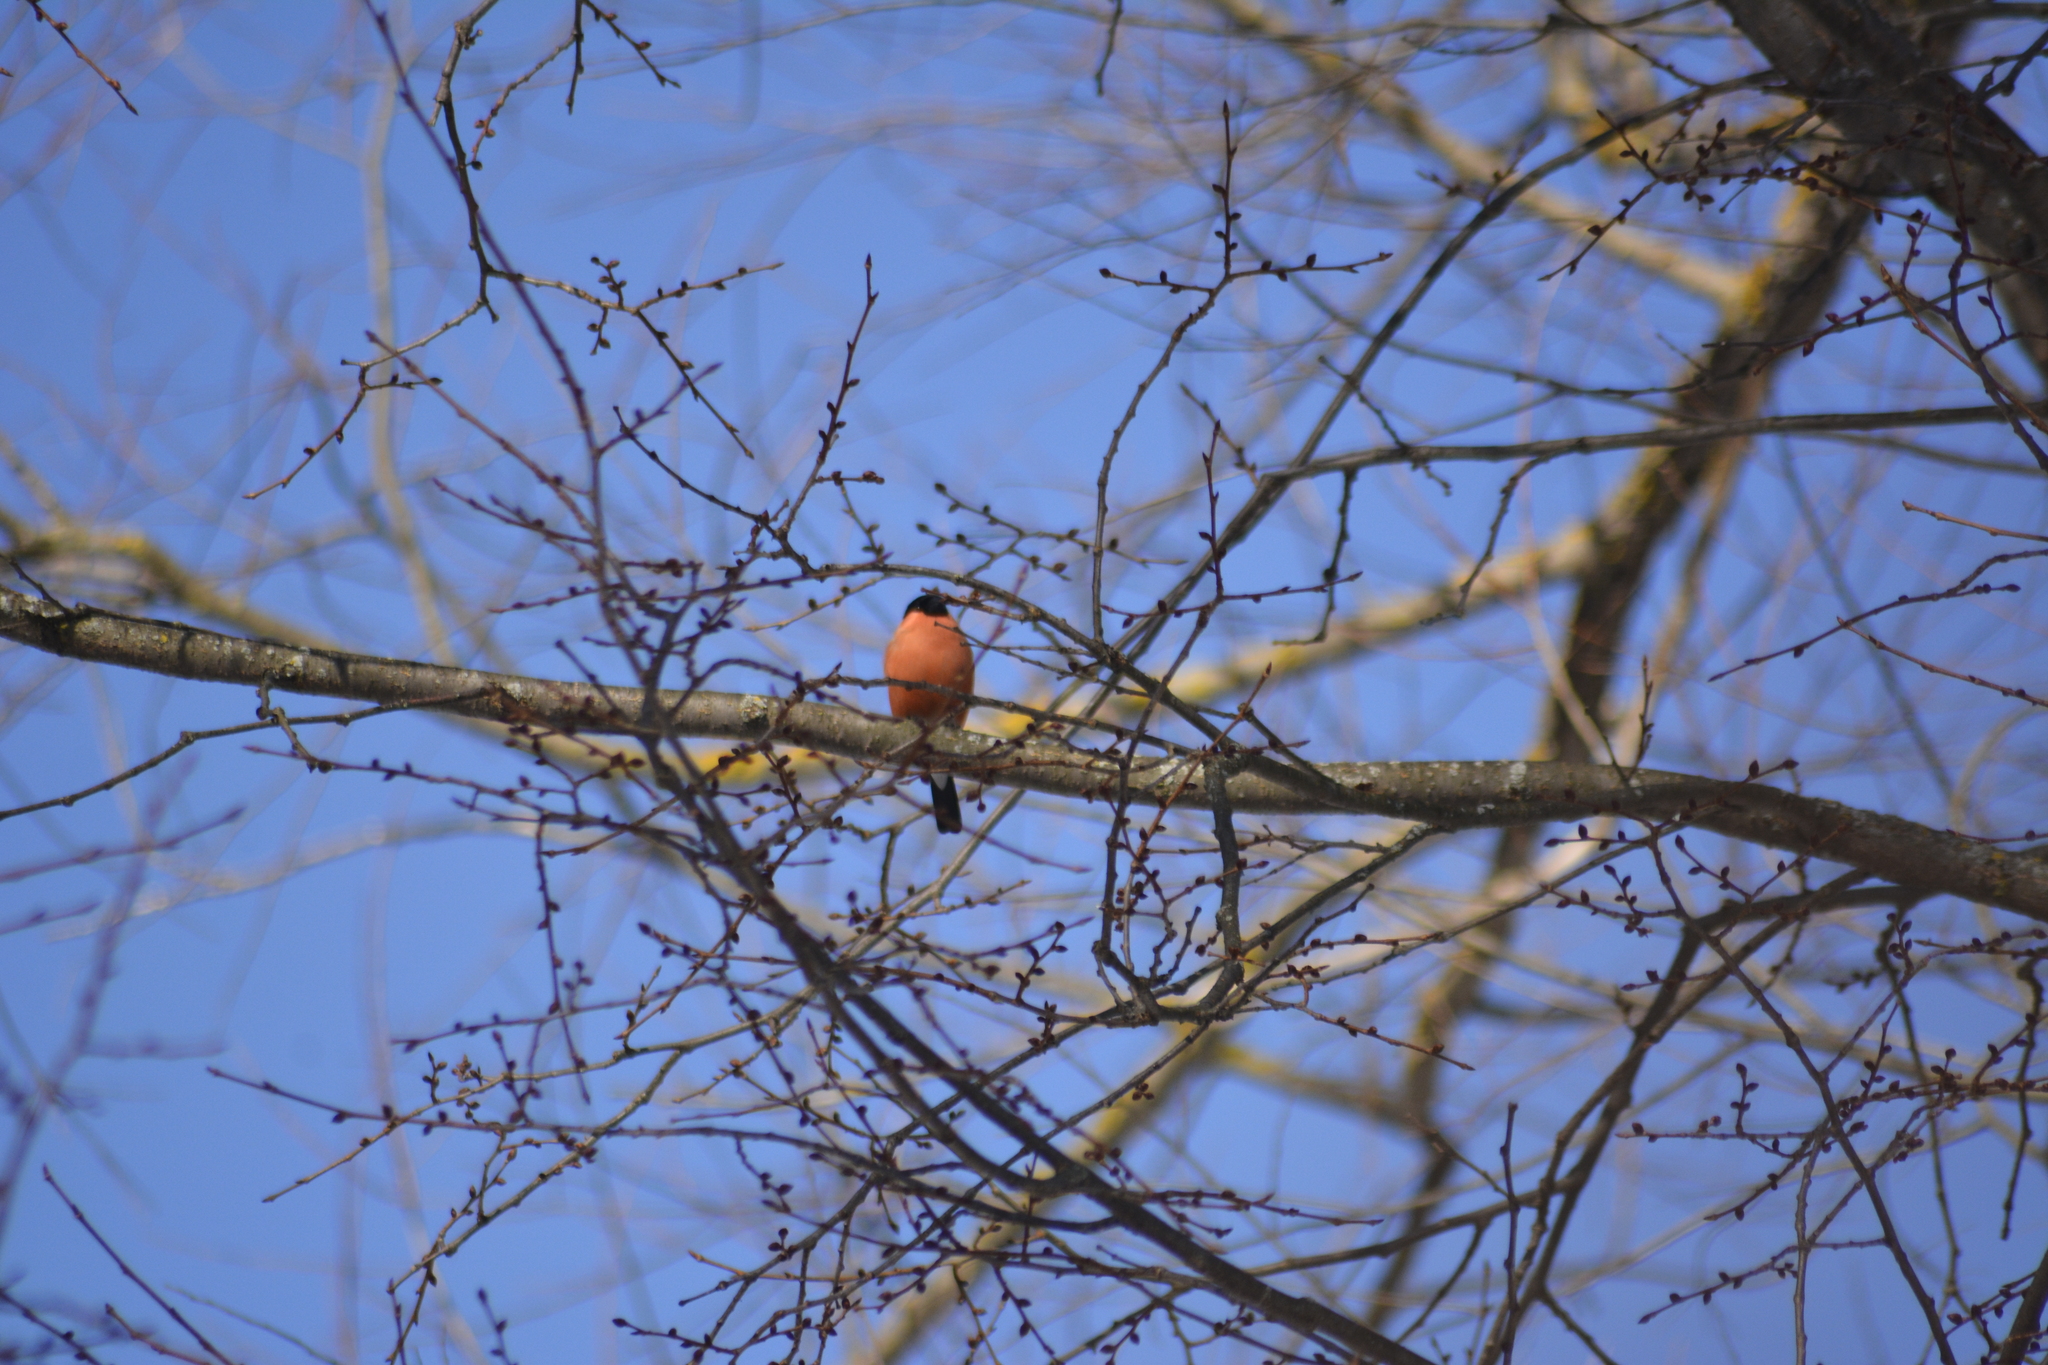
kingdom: Animalia
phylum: Chordata
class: Aves
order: Passeriformes
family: Fringillidae
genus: Pyrrhula
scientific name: Pyrrhula pyrrhula
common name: Eurasian bullfinch
